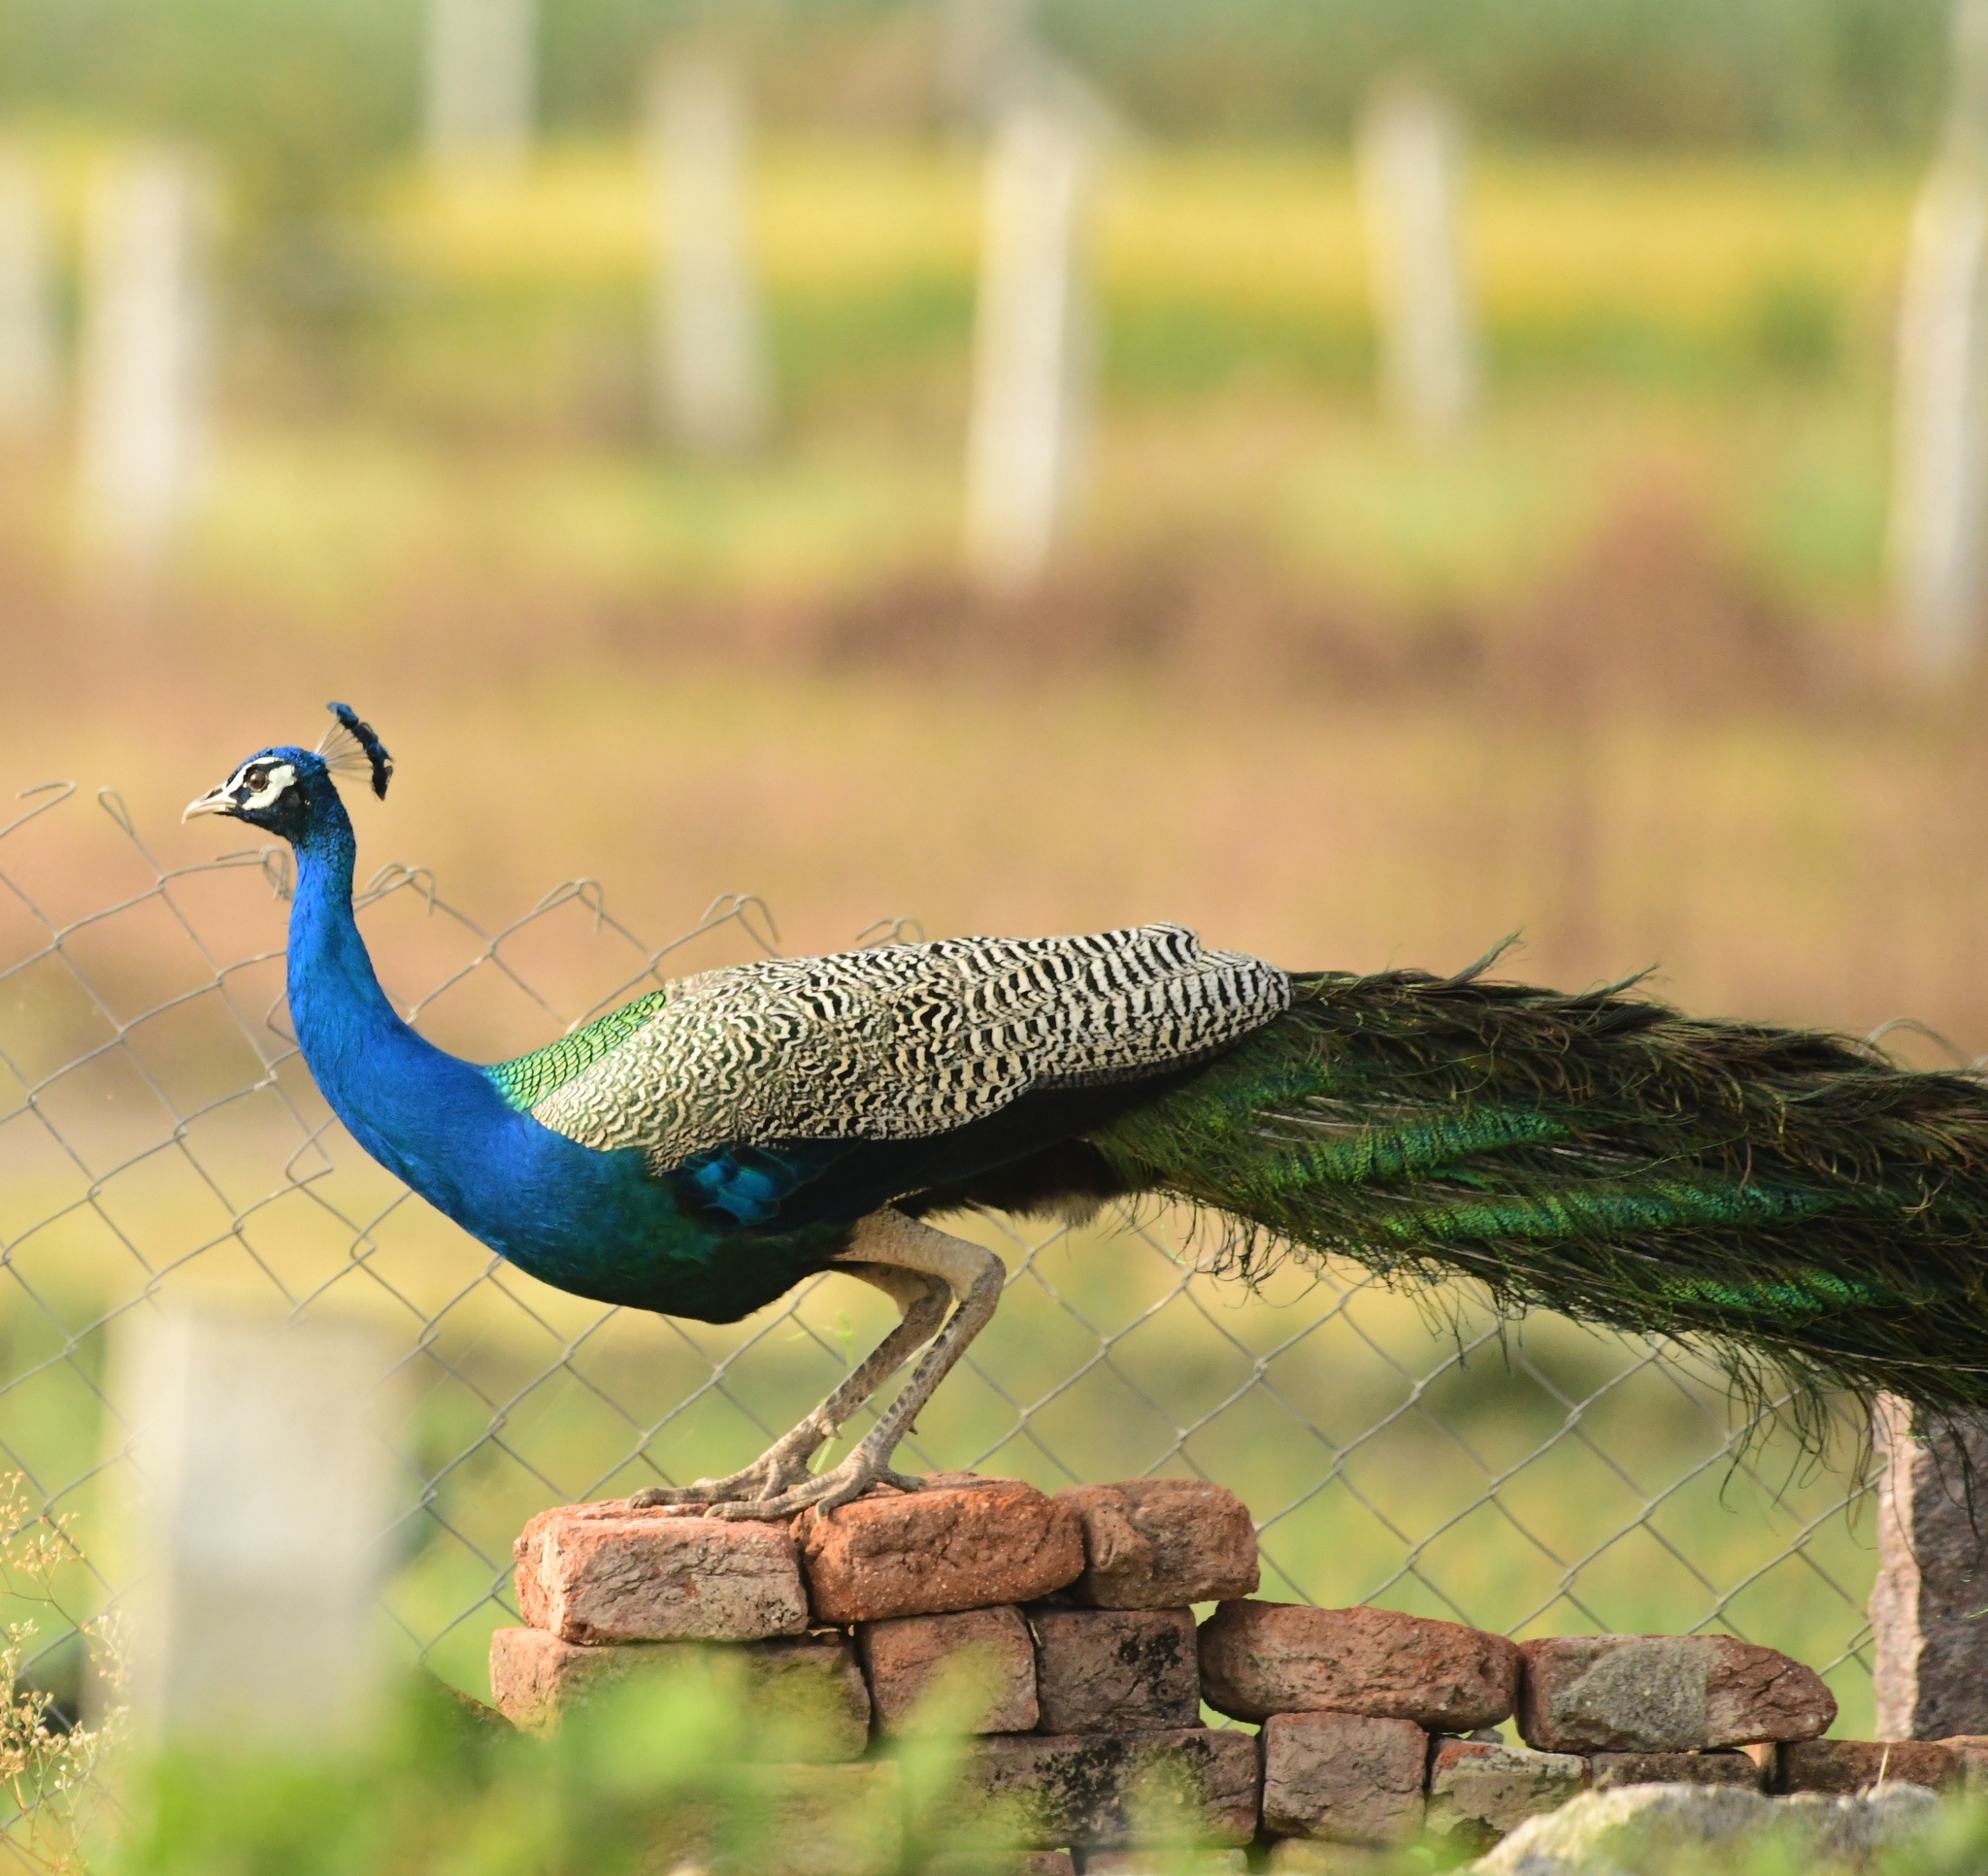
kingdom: Animalia
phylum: Chordata
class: Aves
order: Galliformes
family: Phasianidae
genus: Pavo
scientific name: Pavo cristatus
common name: Indian peafowl
